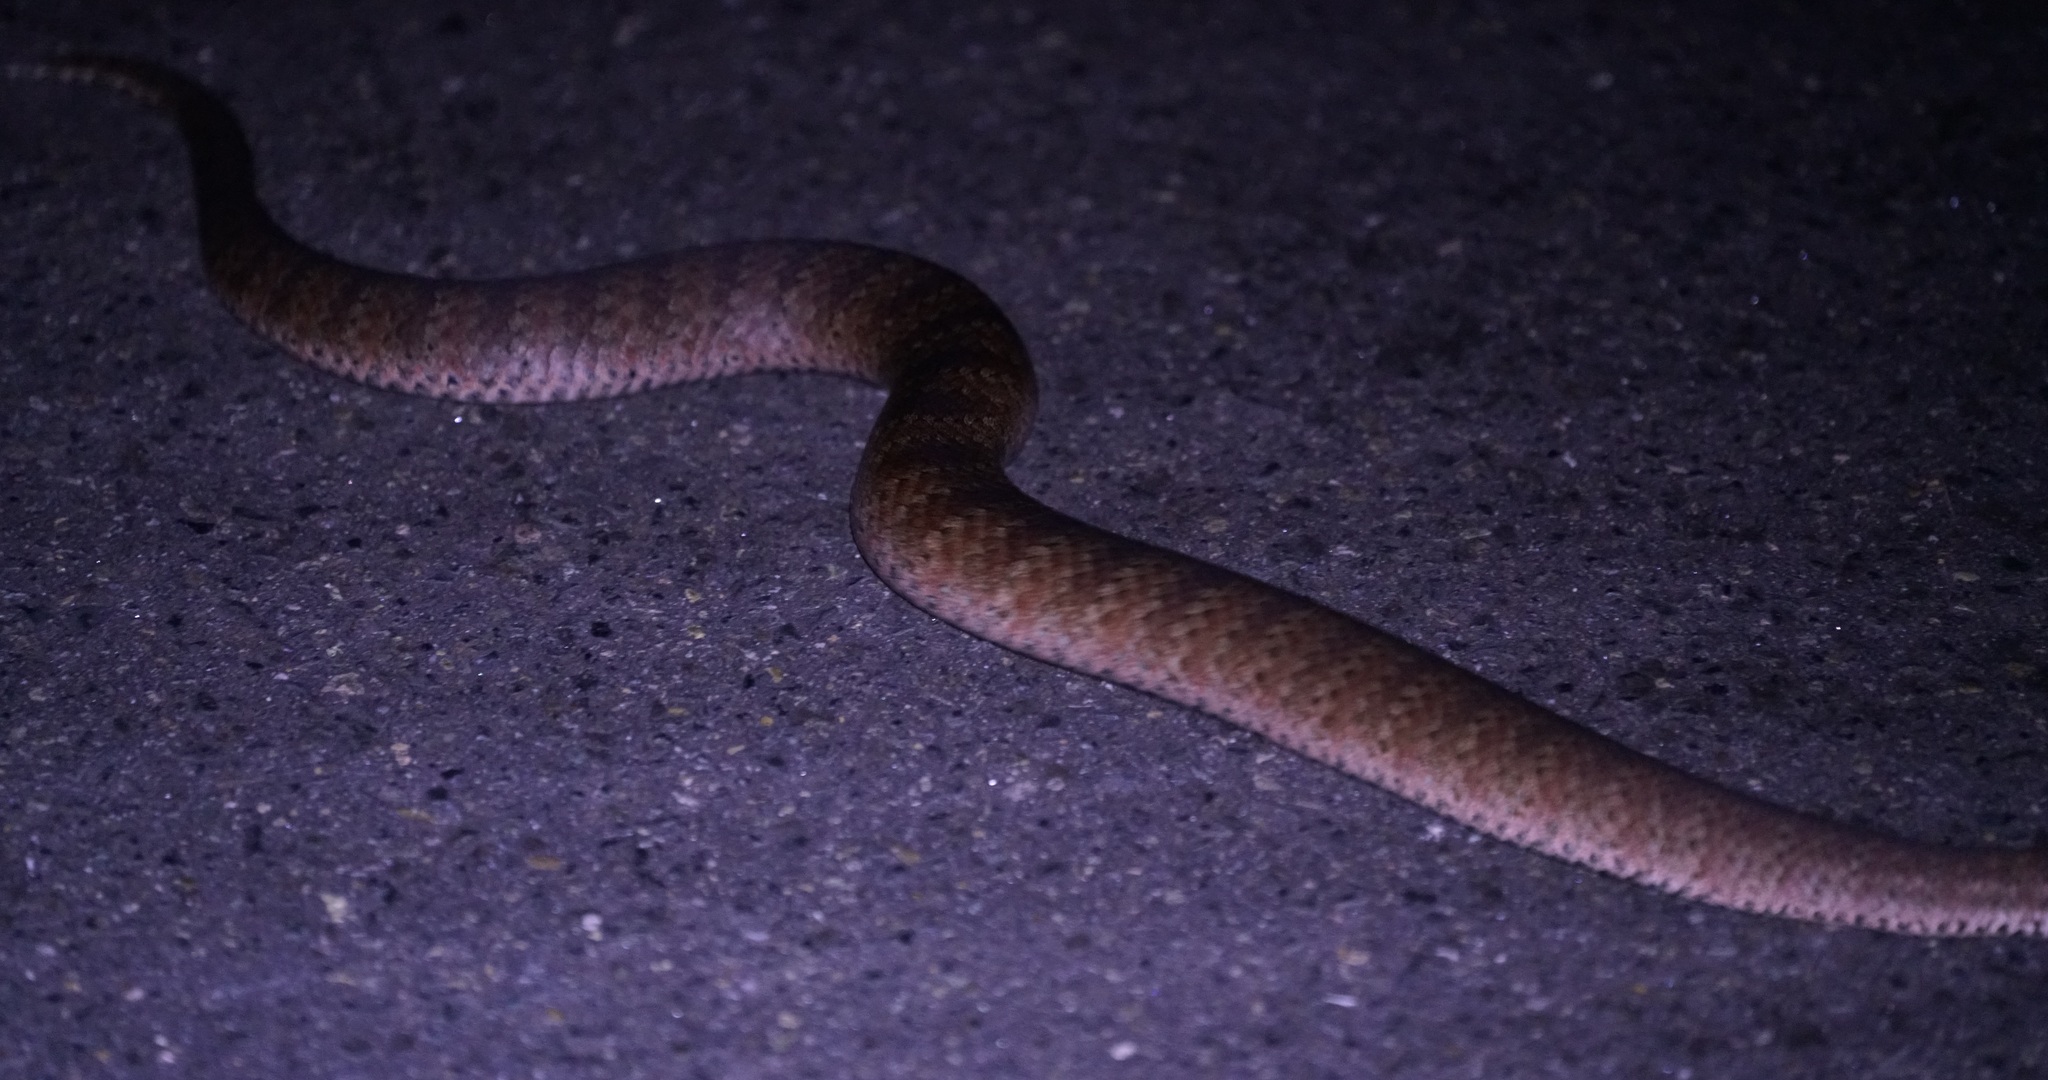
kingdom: Animalia
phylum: Chordata
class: Squamata
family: Elapidae
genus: Acanthophis
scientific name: Acanthophis antarcticus
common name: Common death adder
